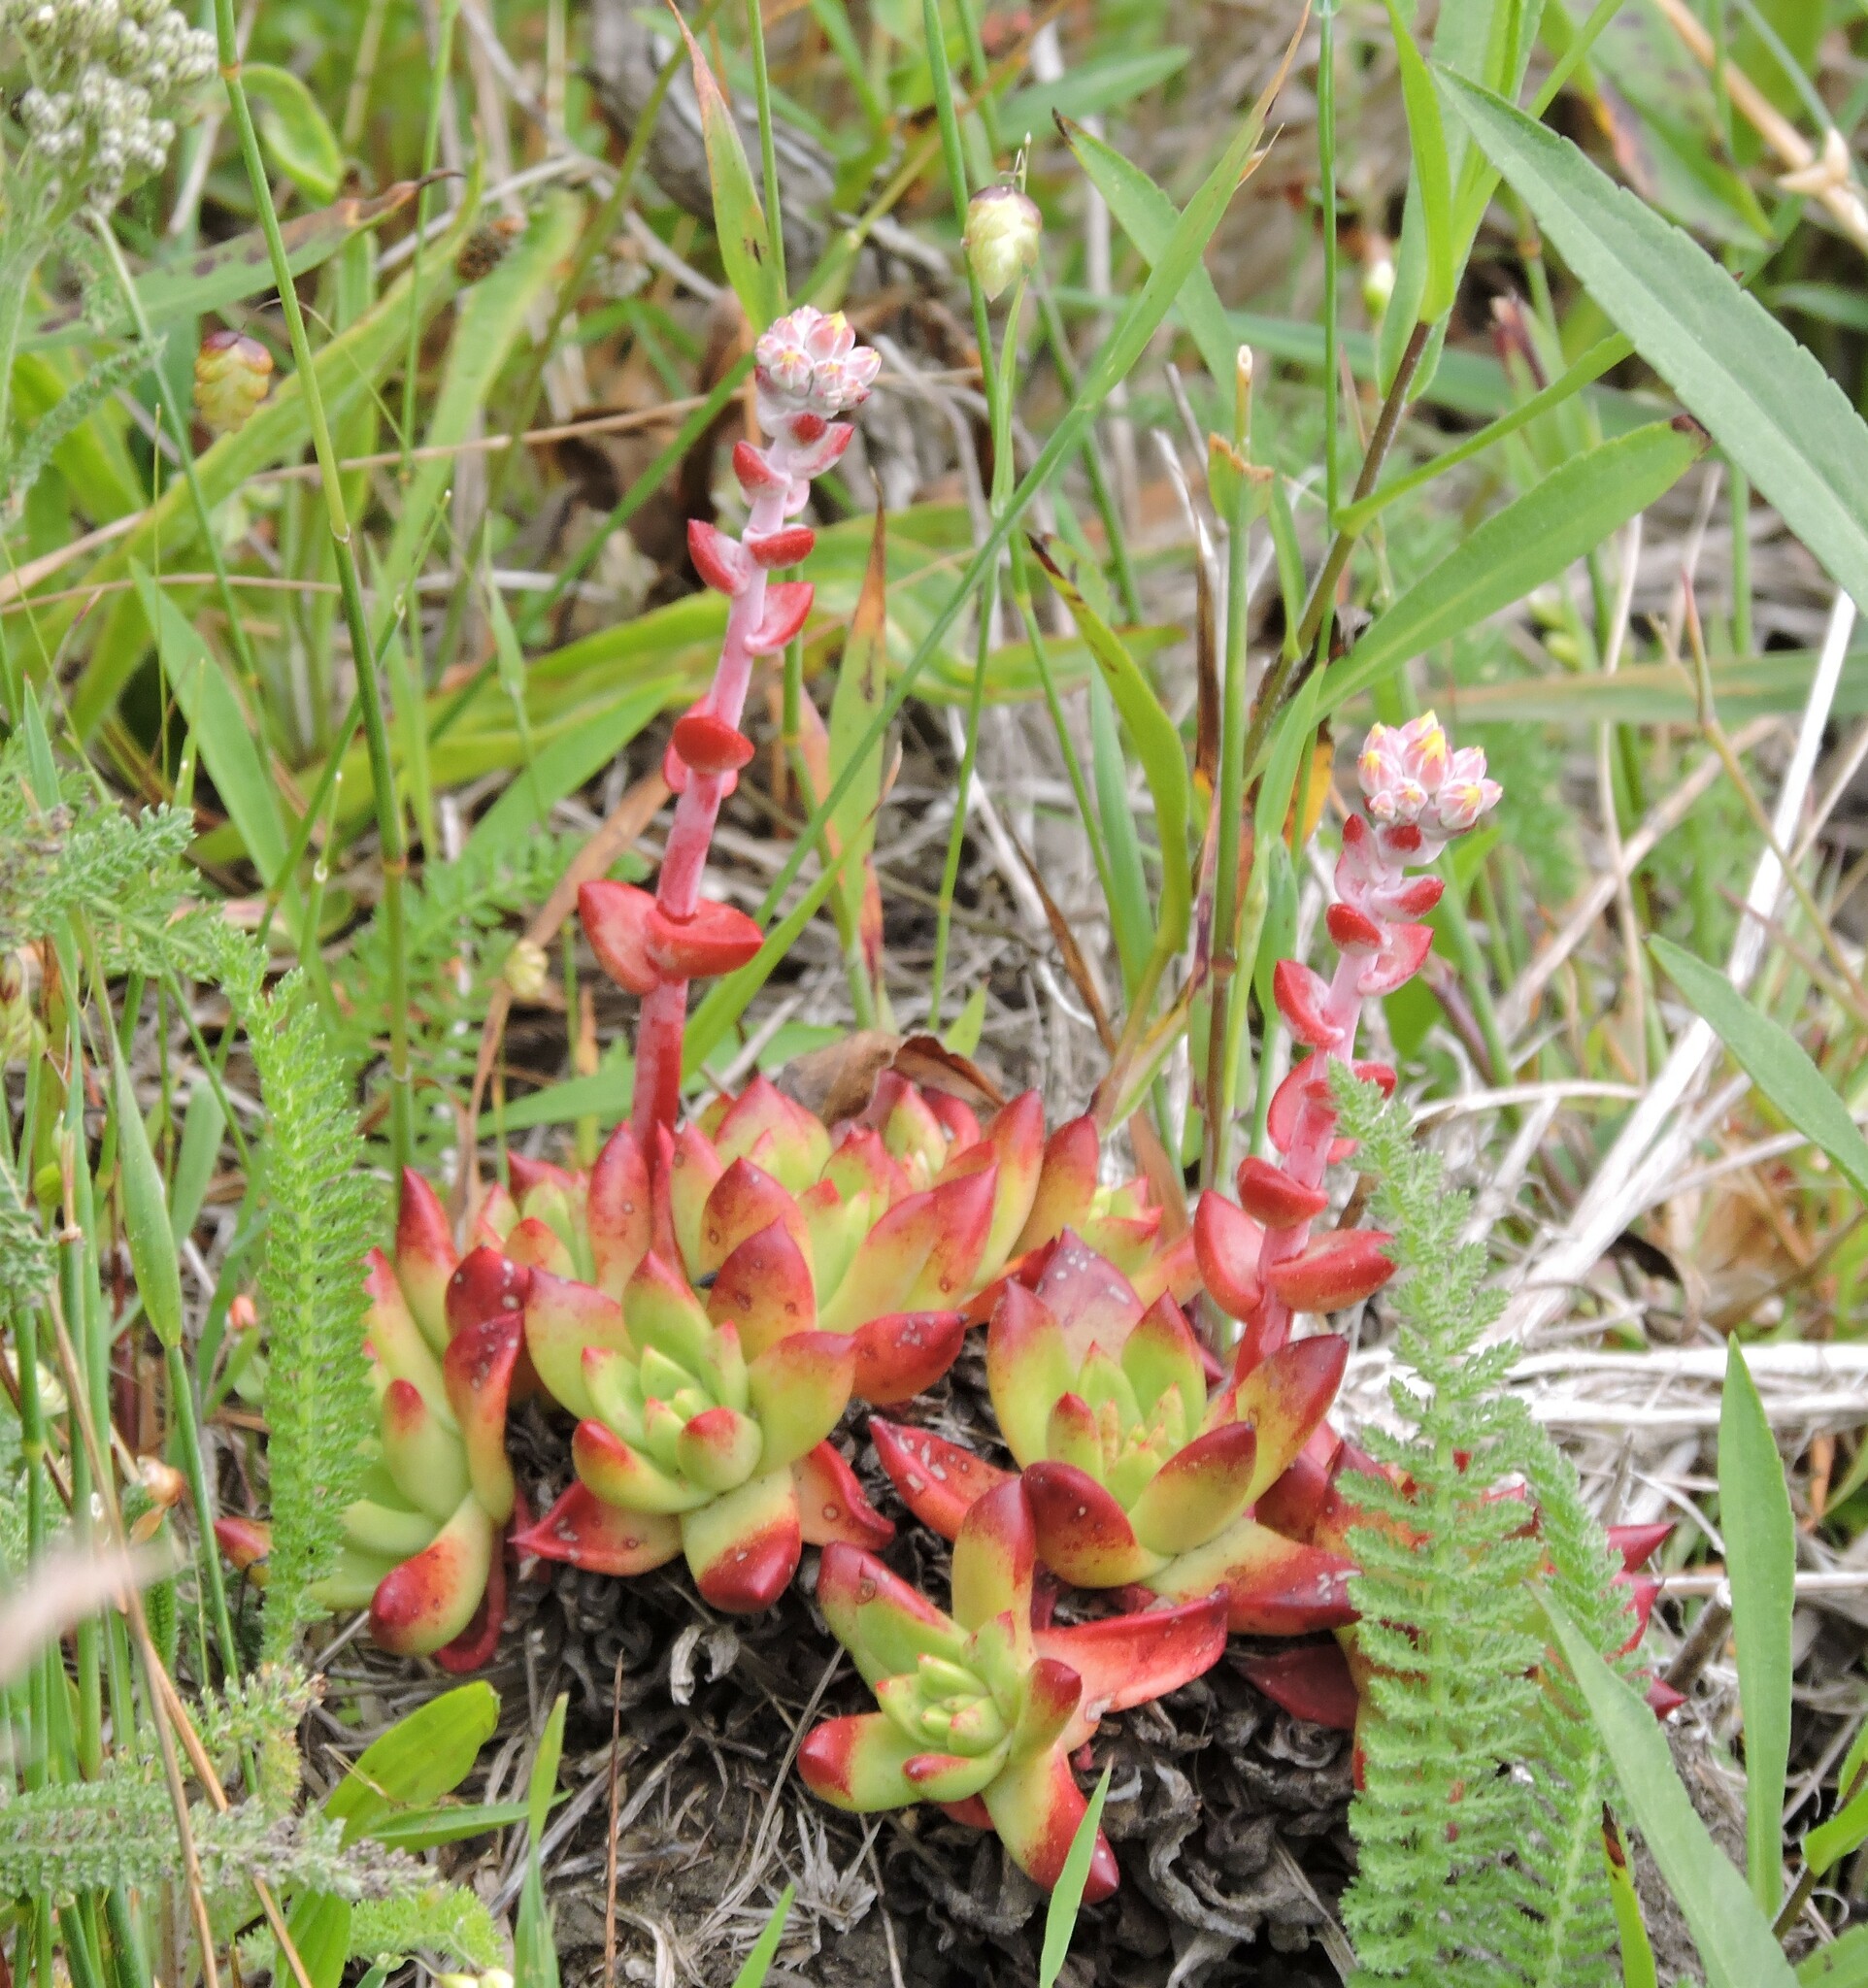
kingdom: Plantae
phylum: Tracheophyta
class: Magnoliopsida
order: Saxifragales
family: Crassulaceae
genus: Dudleya
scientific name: Dudleya farinosa
